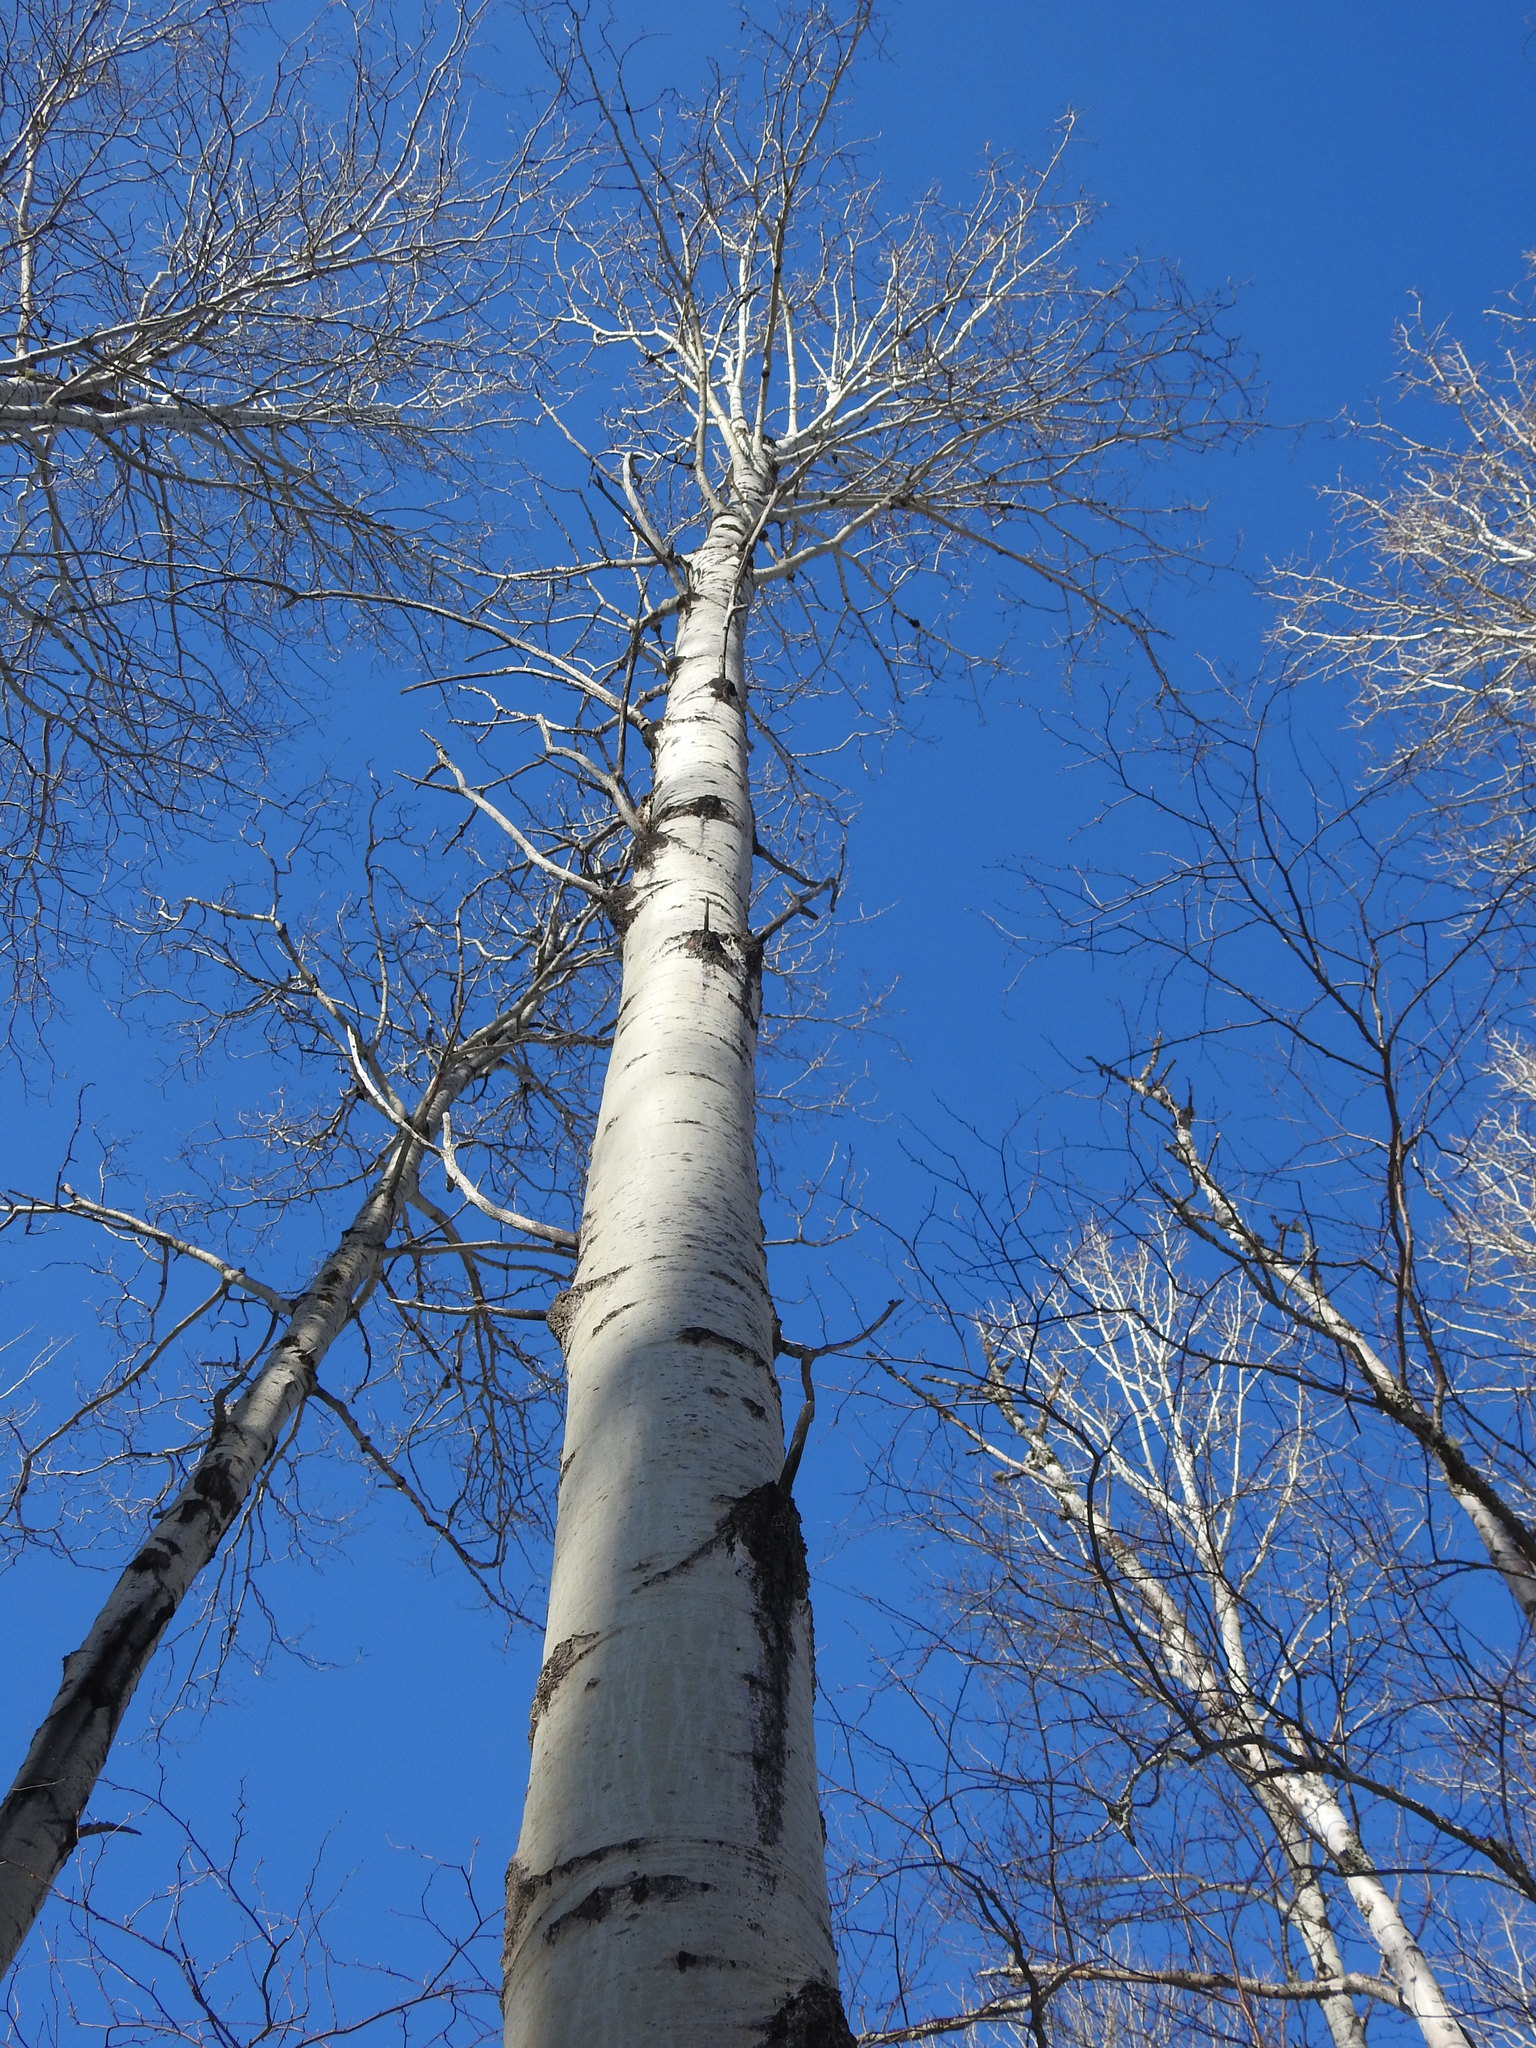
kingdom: Plantae
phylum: Tracheophyta
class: Magnoliopsida
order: Malpighiales
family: Salicaceae
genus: Populus
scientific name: Populus tremuloides
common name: Quaking aspen
